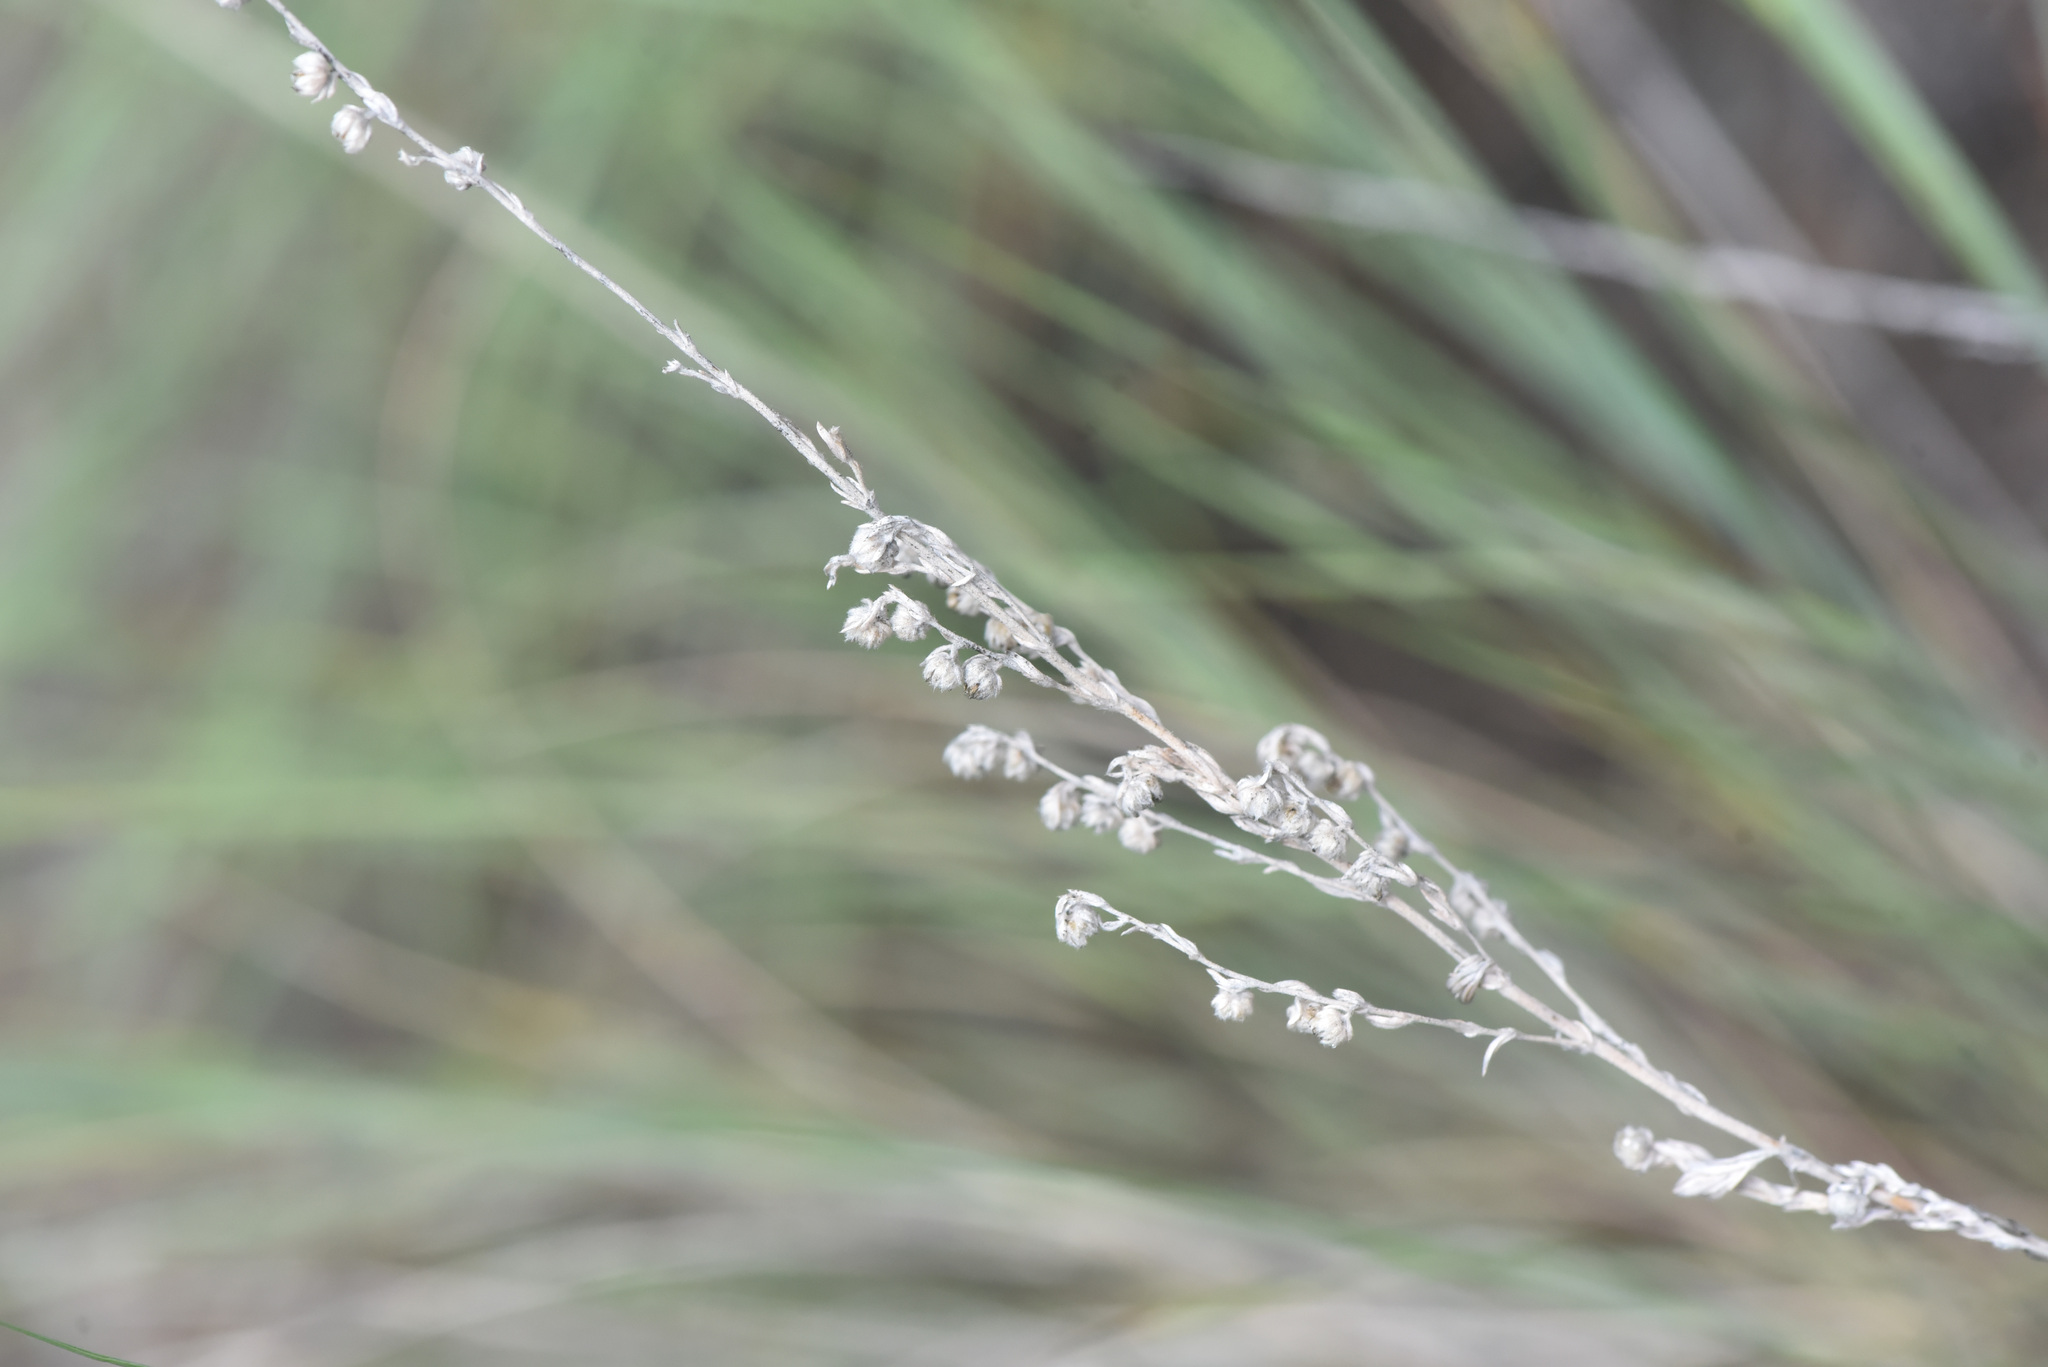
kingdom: Plantae
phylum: Tracheophyta
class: Magnoliopsida
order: Asterales
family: Asteraceae
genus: Artemisia
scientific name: Artemisia frigida
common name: Prairie sagewort
